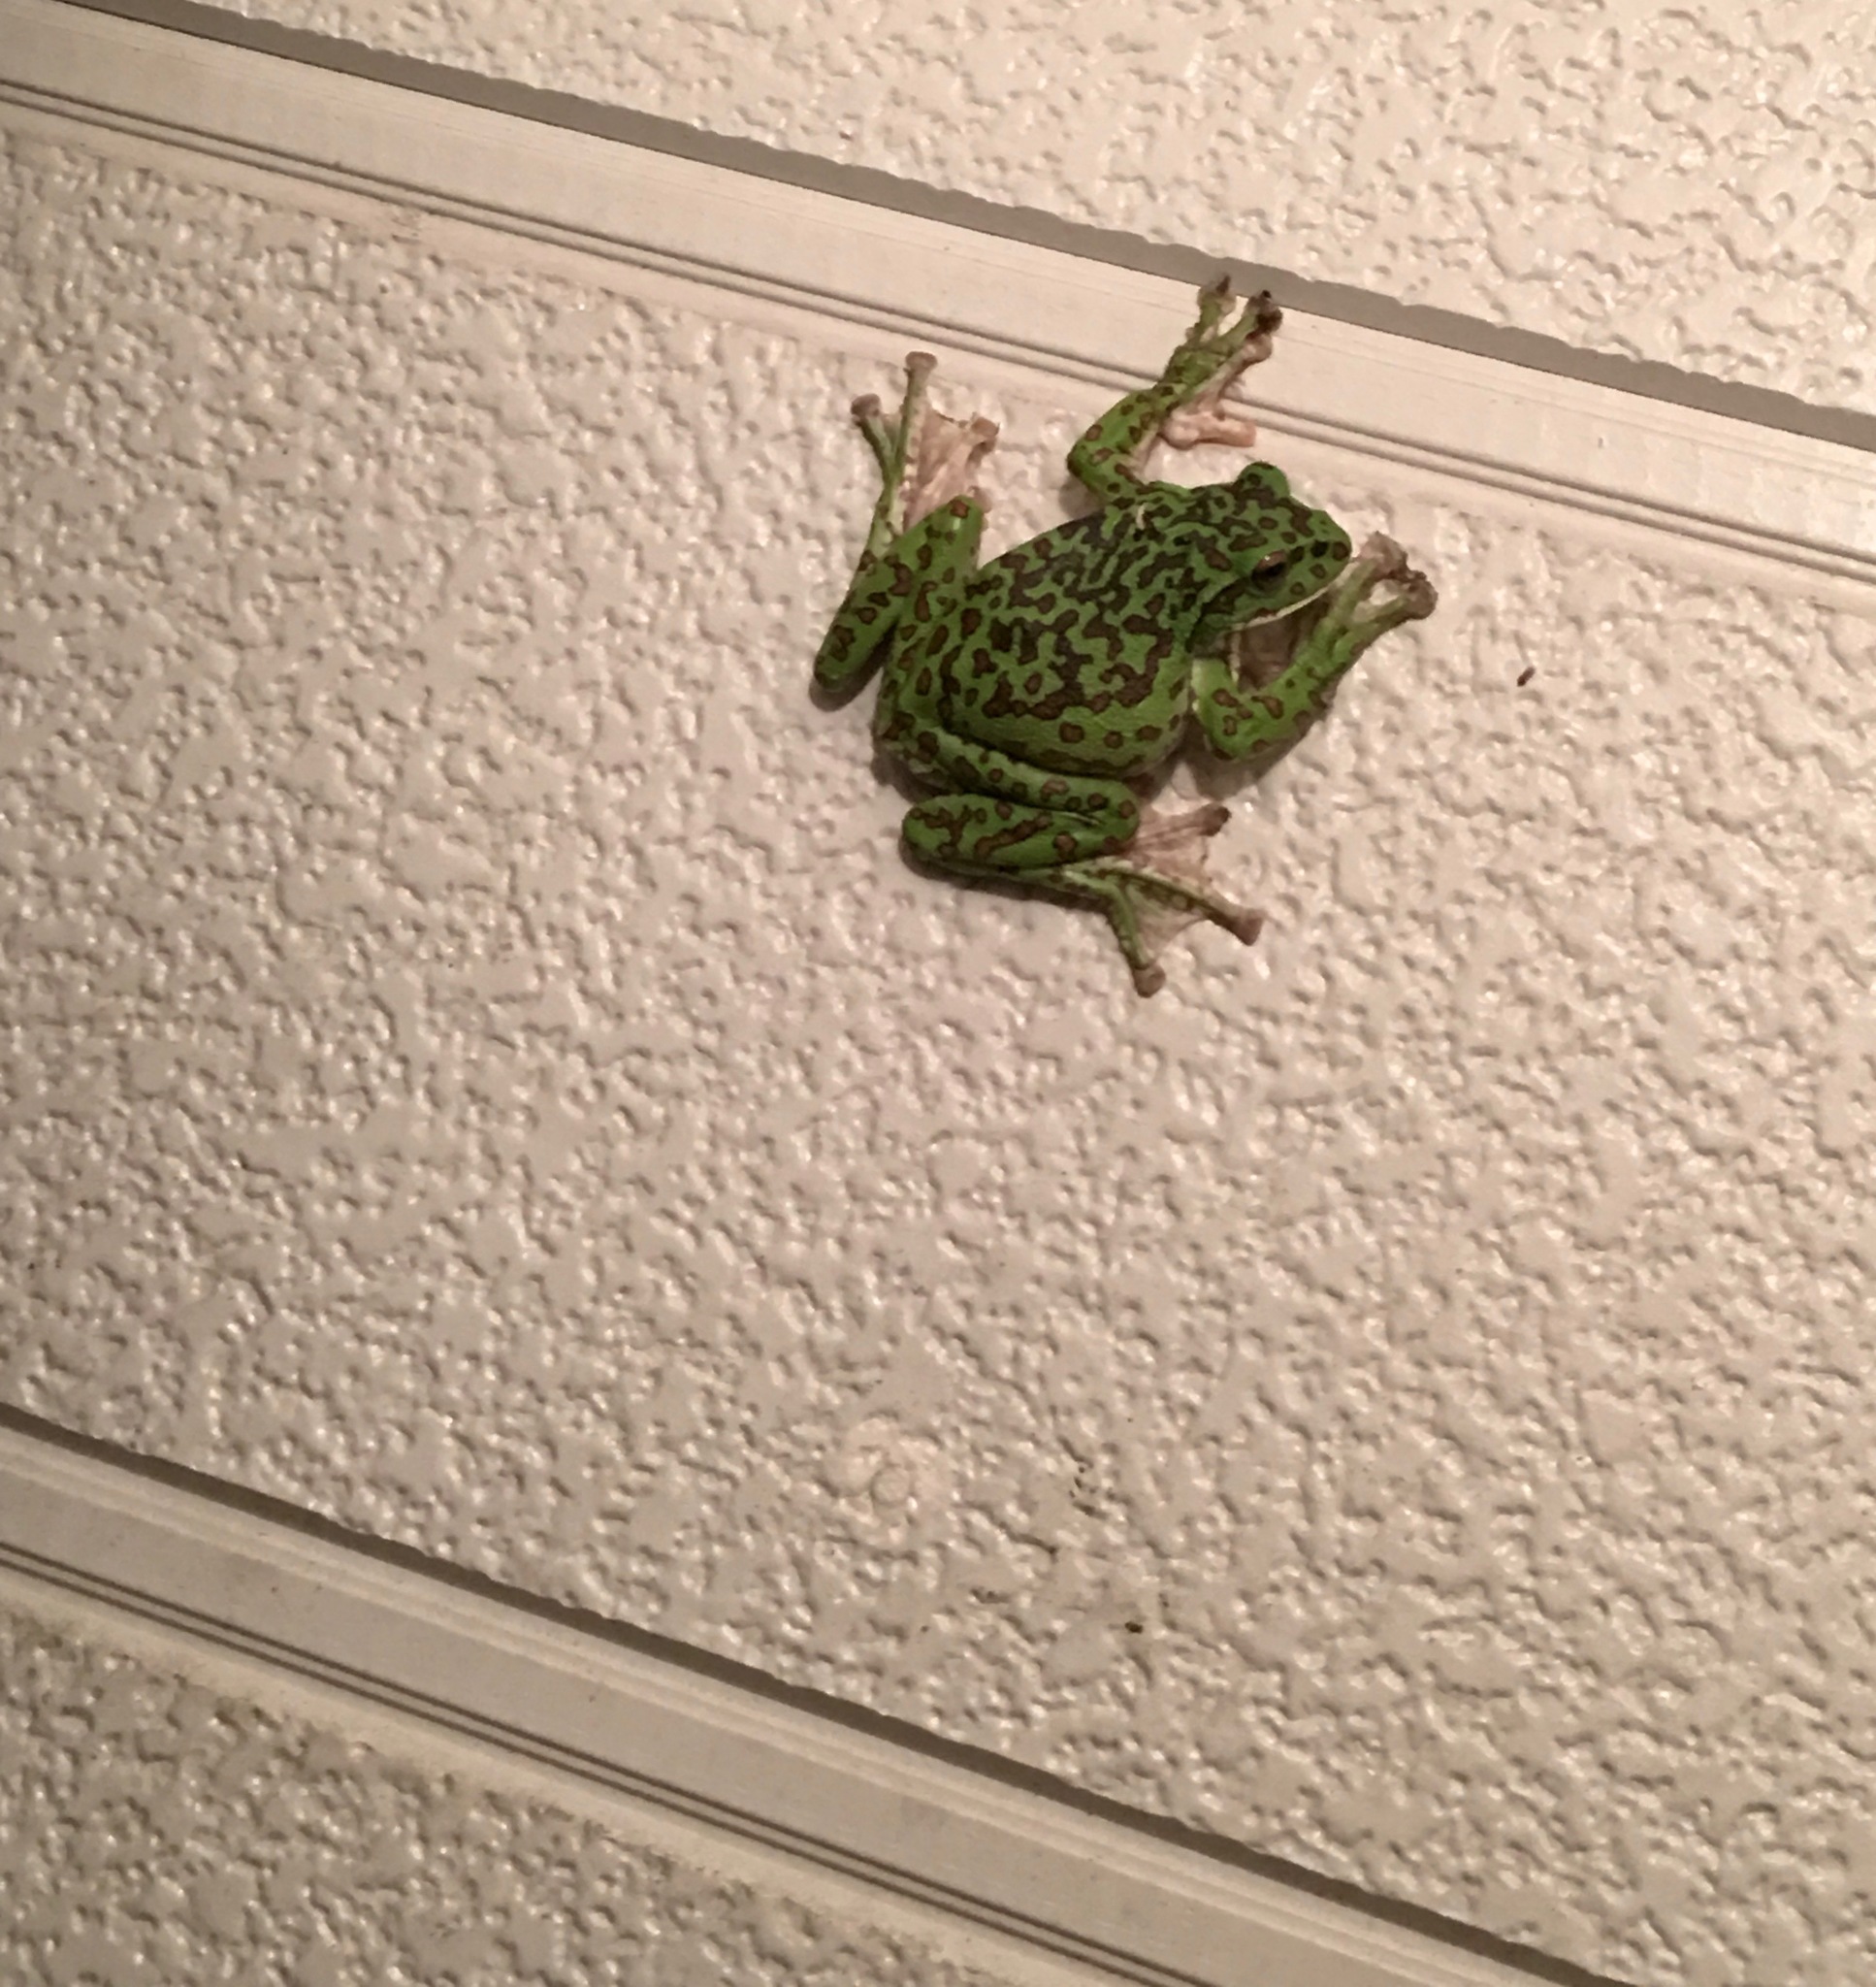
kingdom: Animalia
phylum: Chordata
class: Amphibia
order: Anura
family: Rhacophoridae
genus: Zhangixalus
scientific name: Zhangixalus arboreus
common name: Forest green tree frog
